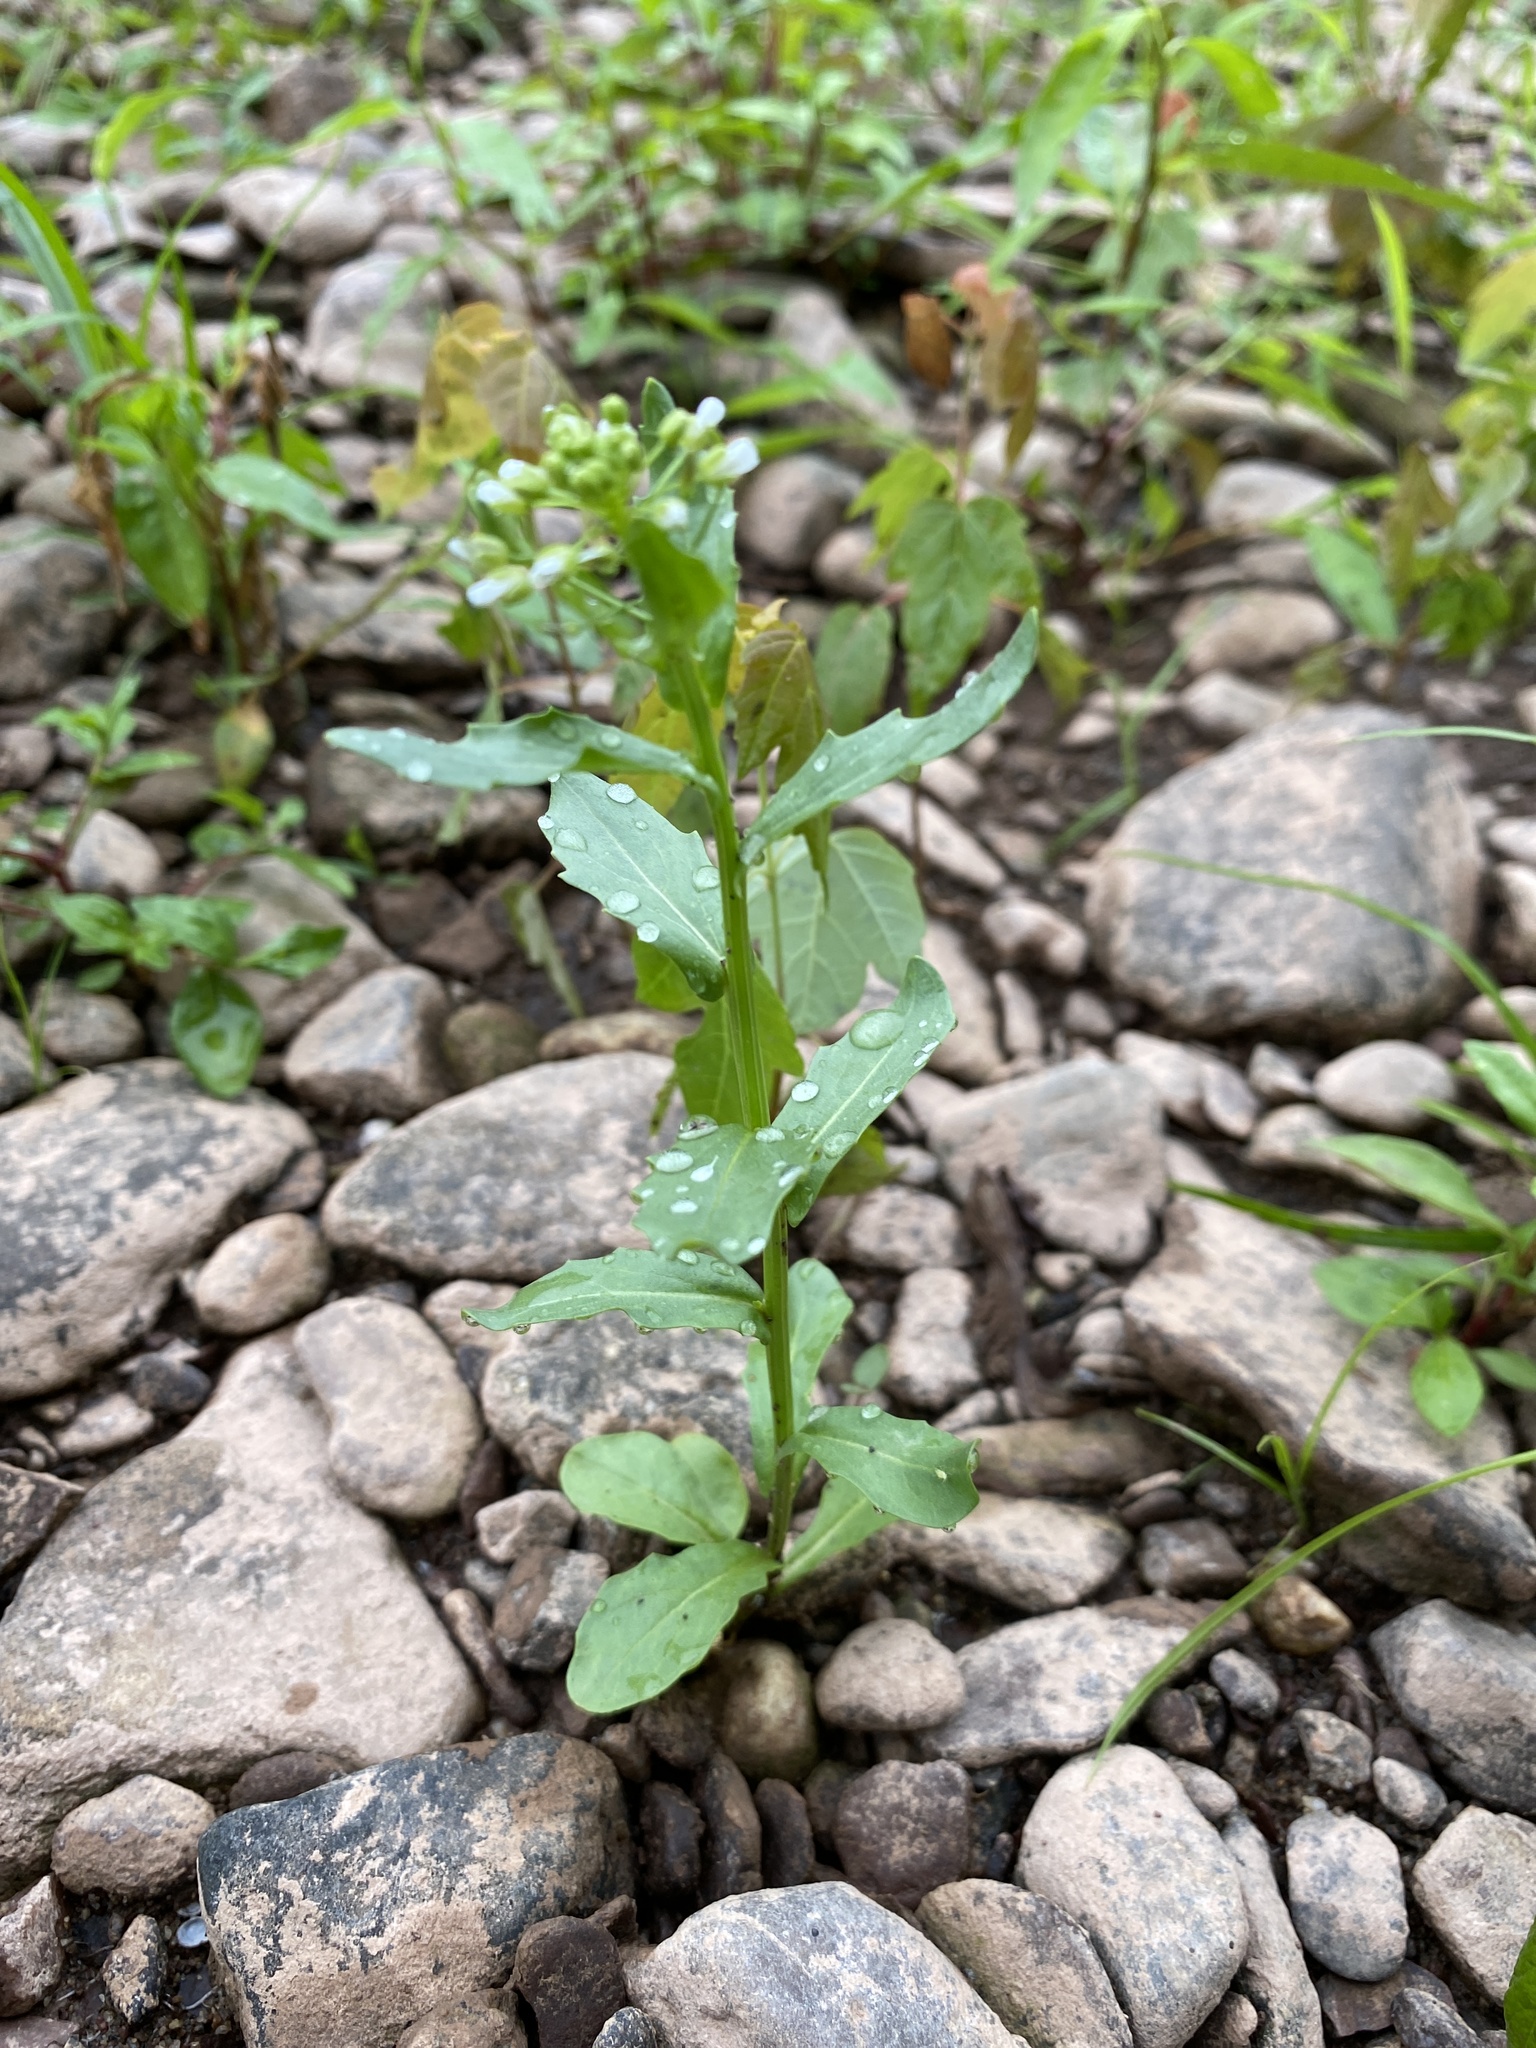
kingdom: Plantae
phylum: Tracheophyta
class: Magnoliopsida
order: Brassicales
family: Brassicaceae
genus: Thlaspi
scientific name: Thlaspi arvense
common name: Field pennycress
